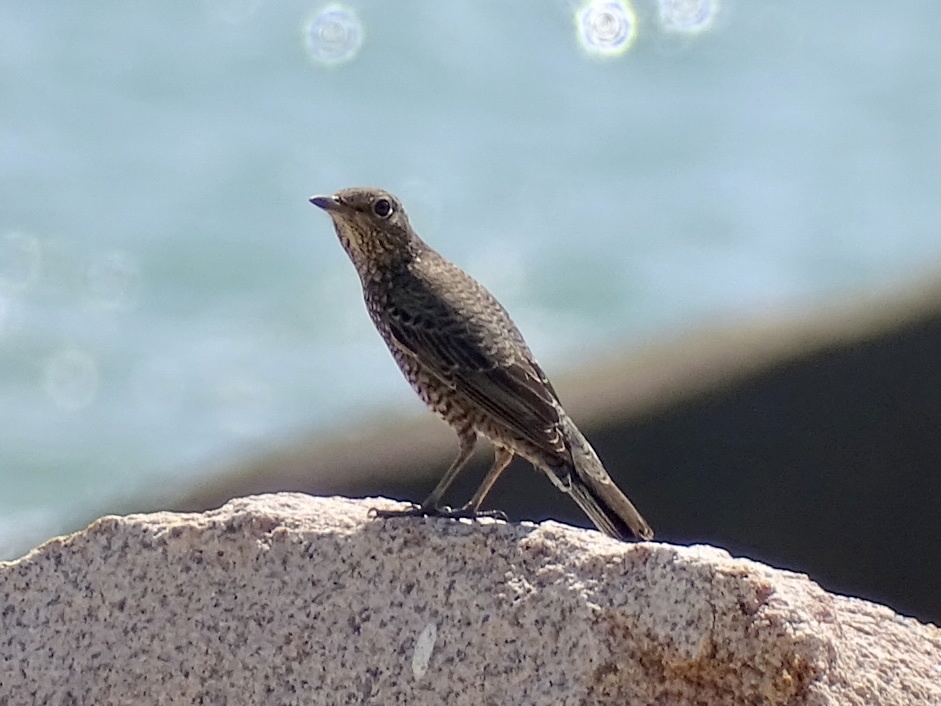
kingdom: Animalia
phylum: Chordata
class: Aves
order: Passeriformes
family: Muscicapidae
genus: Monticola
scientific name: Monticola solitarius
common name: Blue rock thrush
